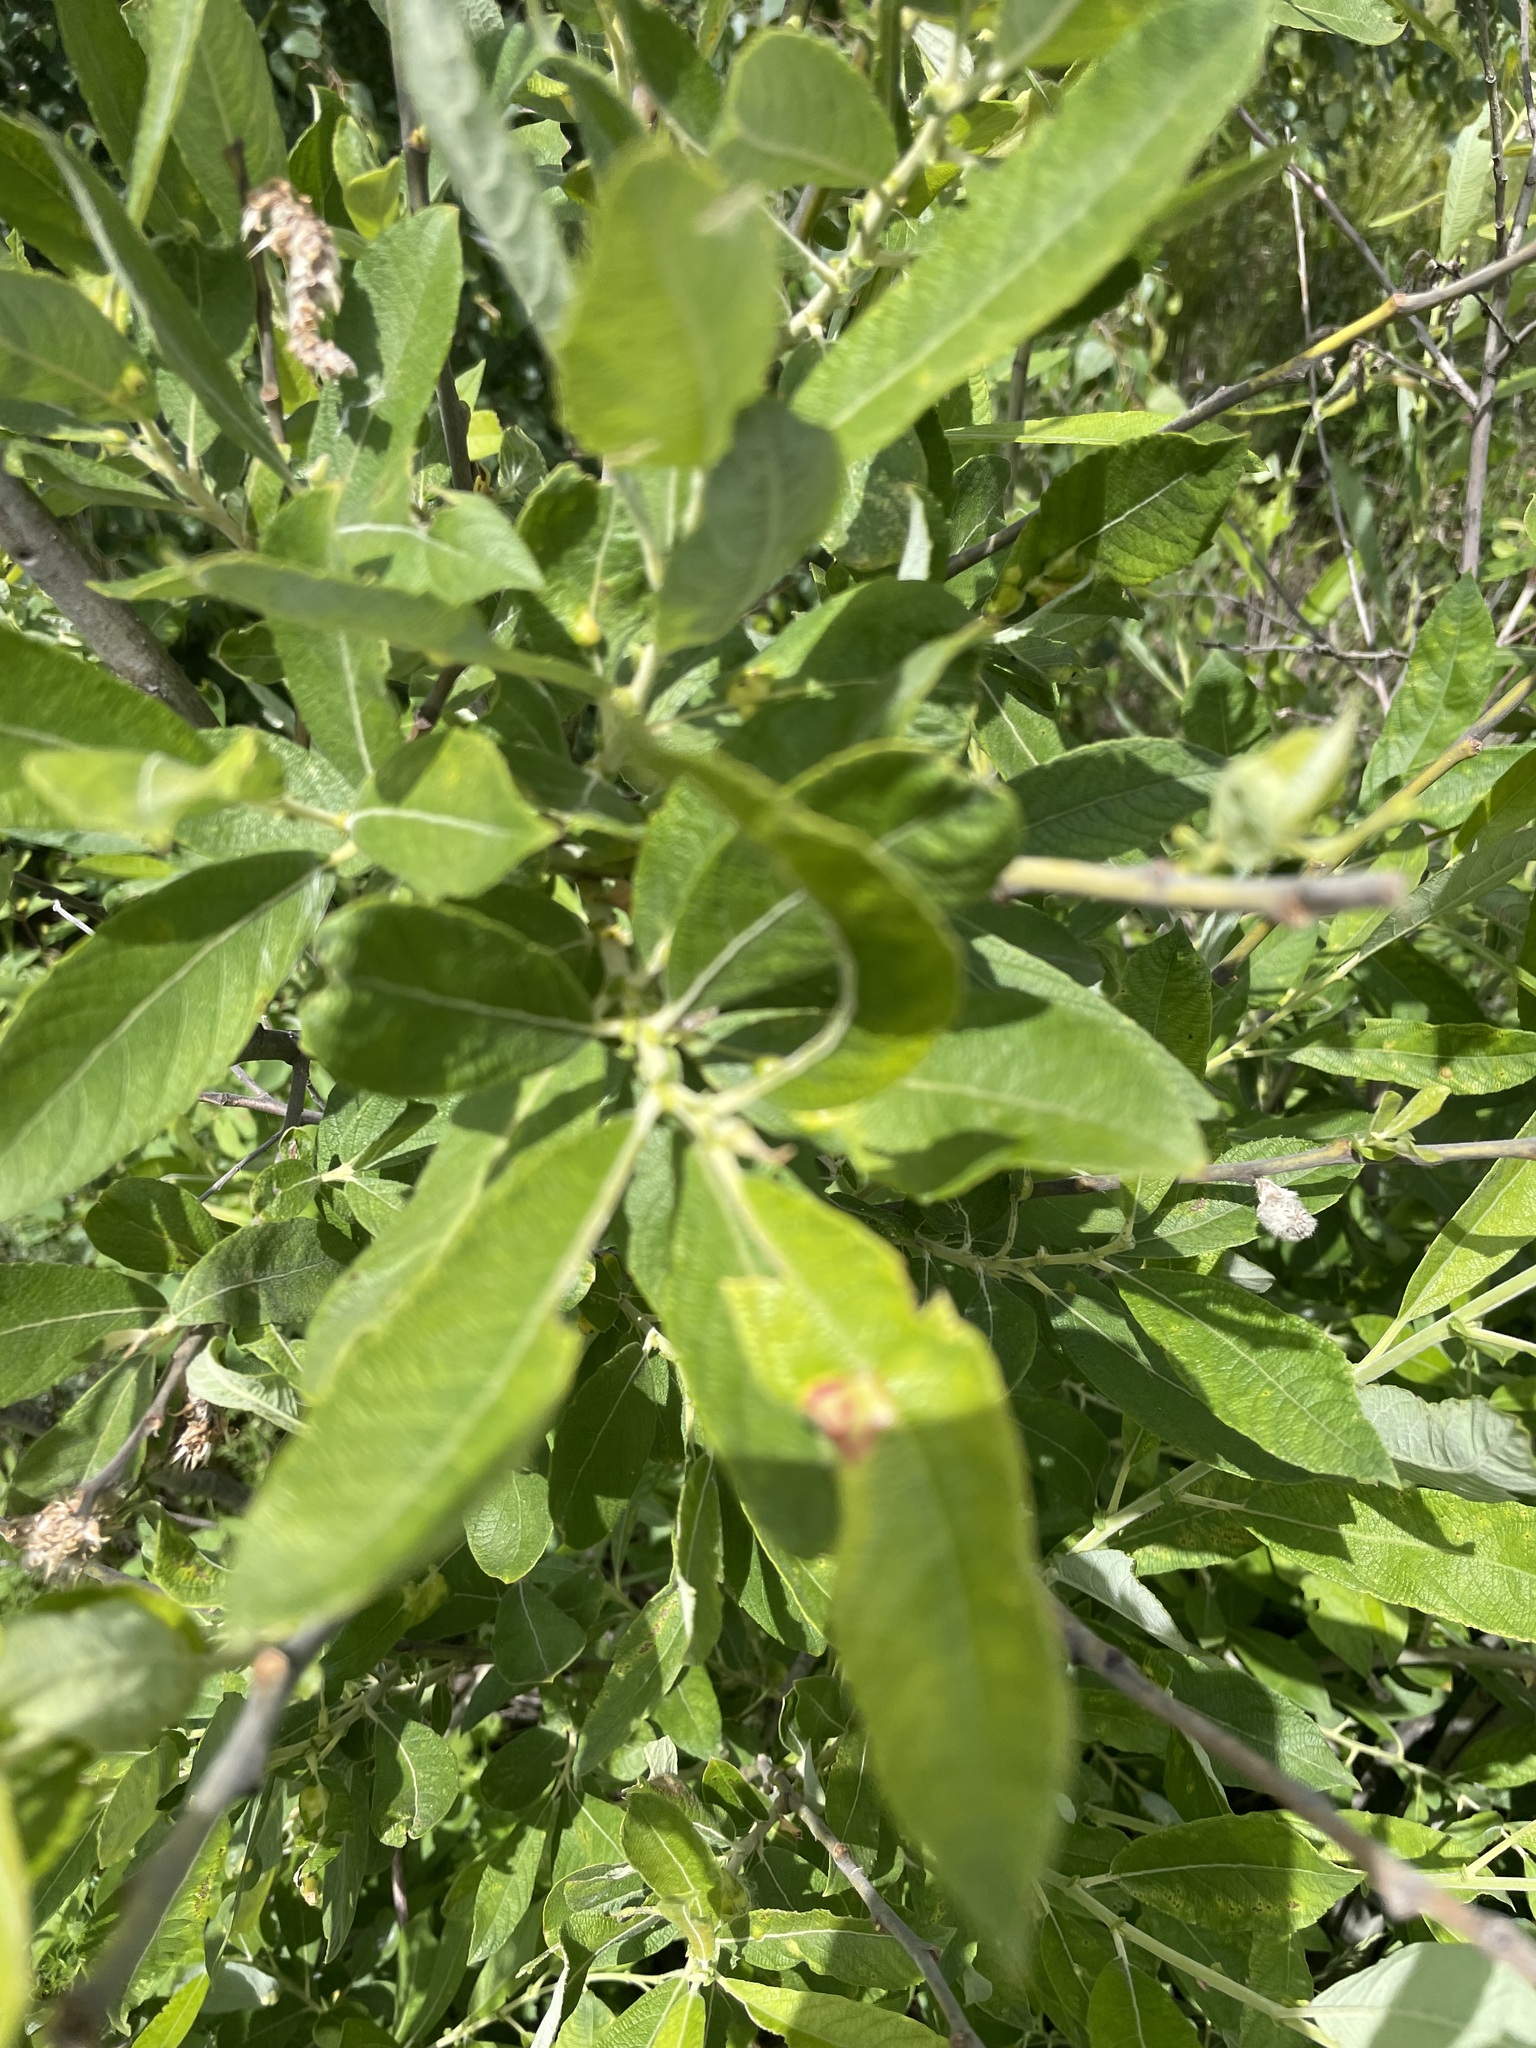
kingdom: Plantae
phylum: Tracheophyta
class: Magnoliopsida
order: Malpighiales
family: Salicaceae
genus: Salix
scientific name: Salix cinerea
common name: Common sallow
